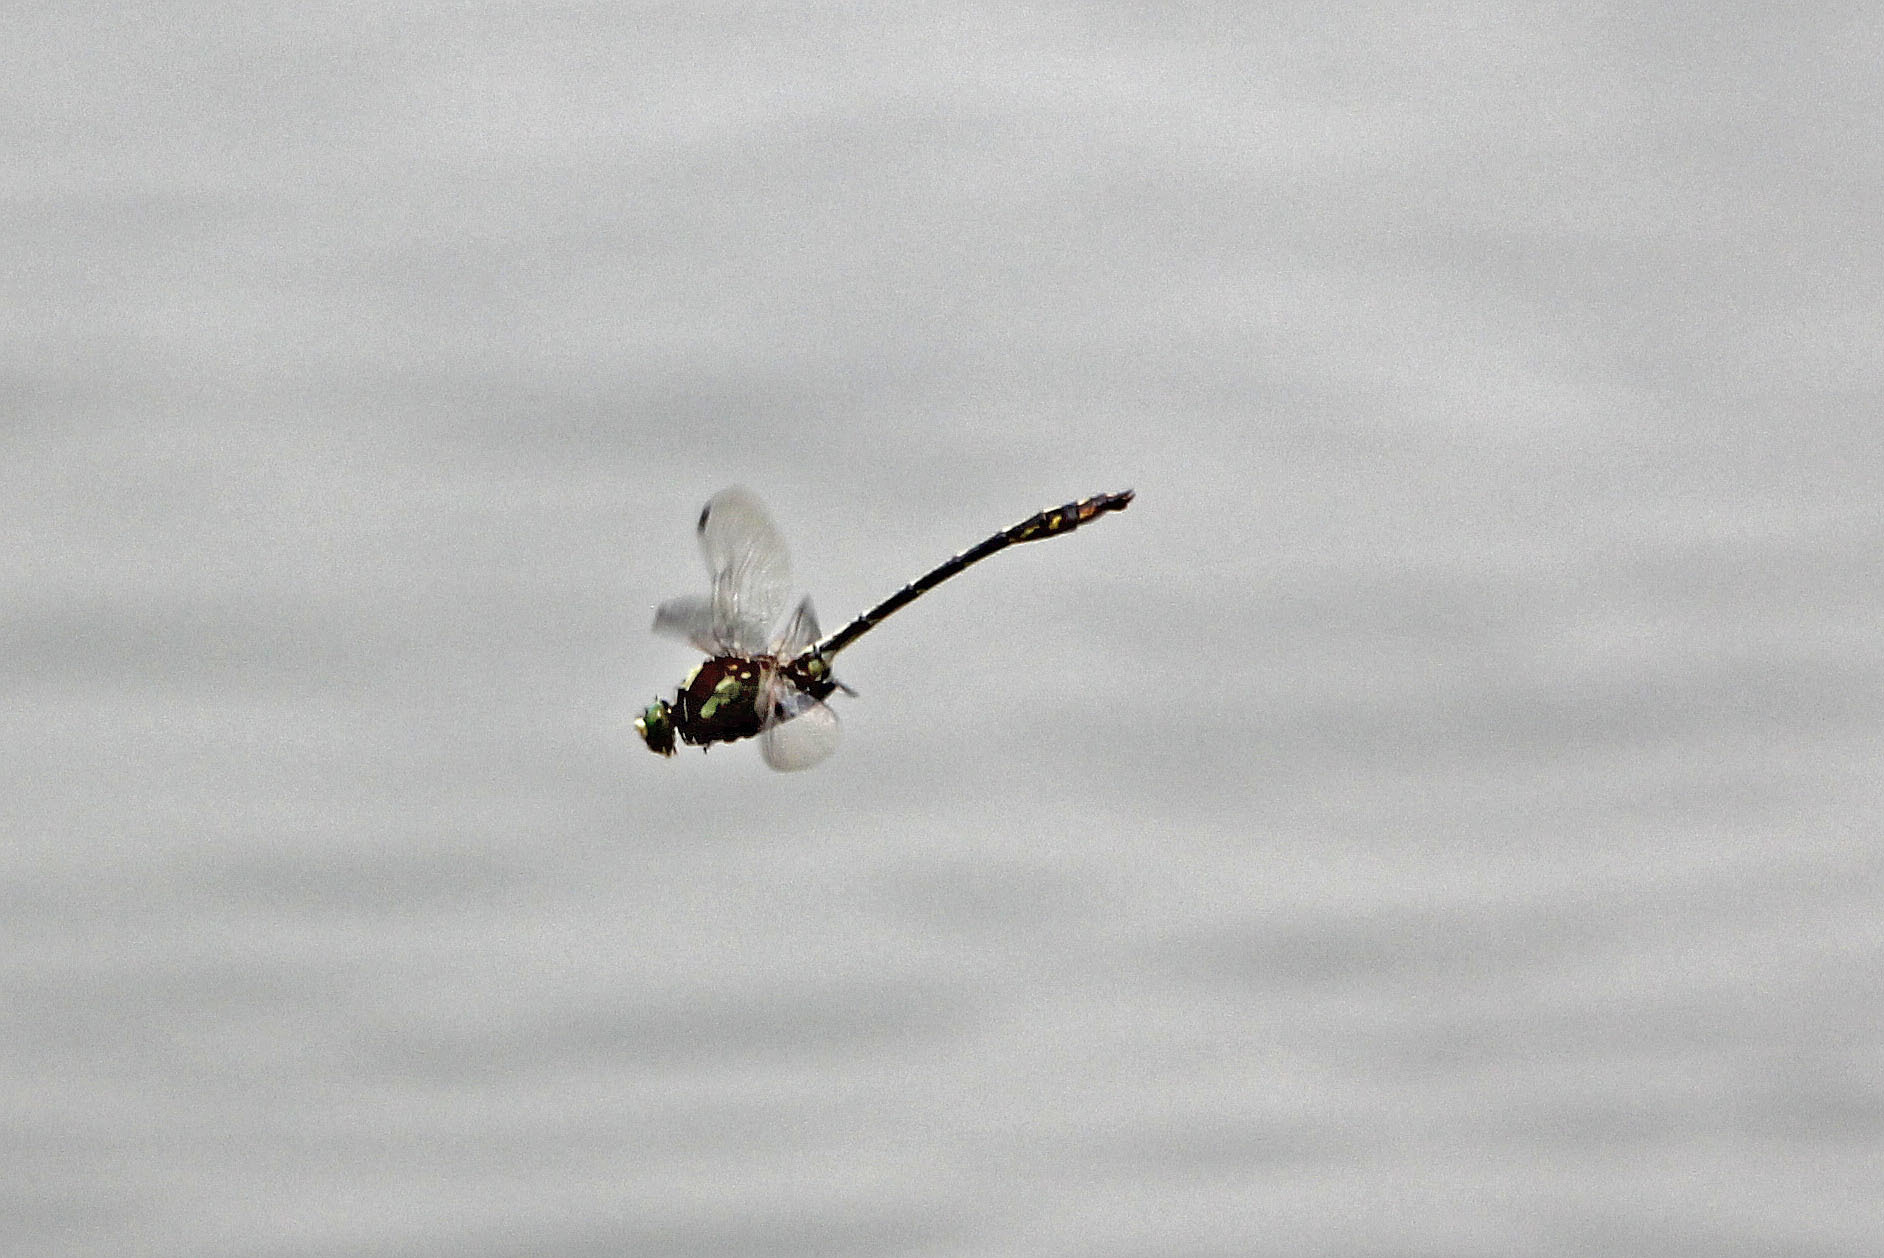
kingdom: Animalia
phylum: Arthropoda
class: Insecta
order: Odonata
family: Gomphidae
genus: Dromogomphus
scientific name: Dromogomphus spinosus
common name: Black-shouldered spinyleg
